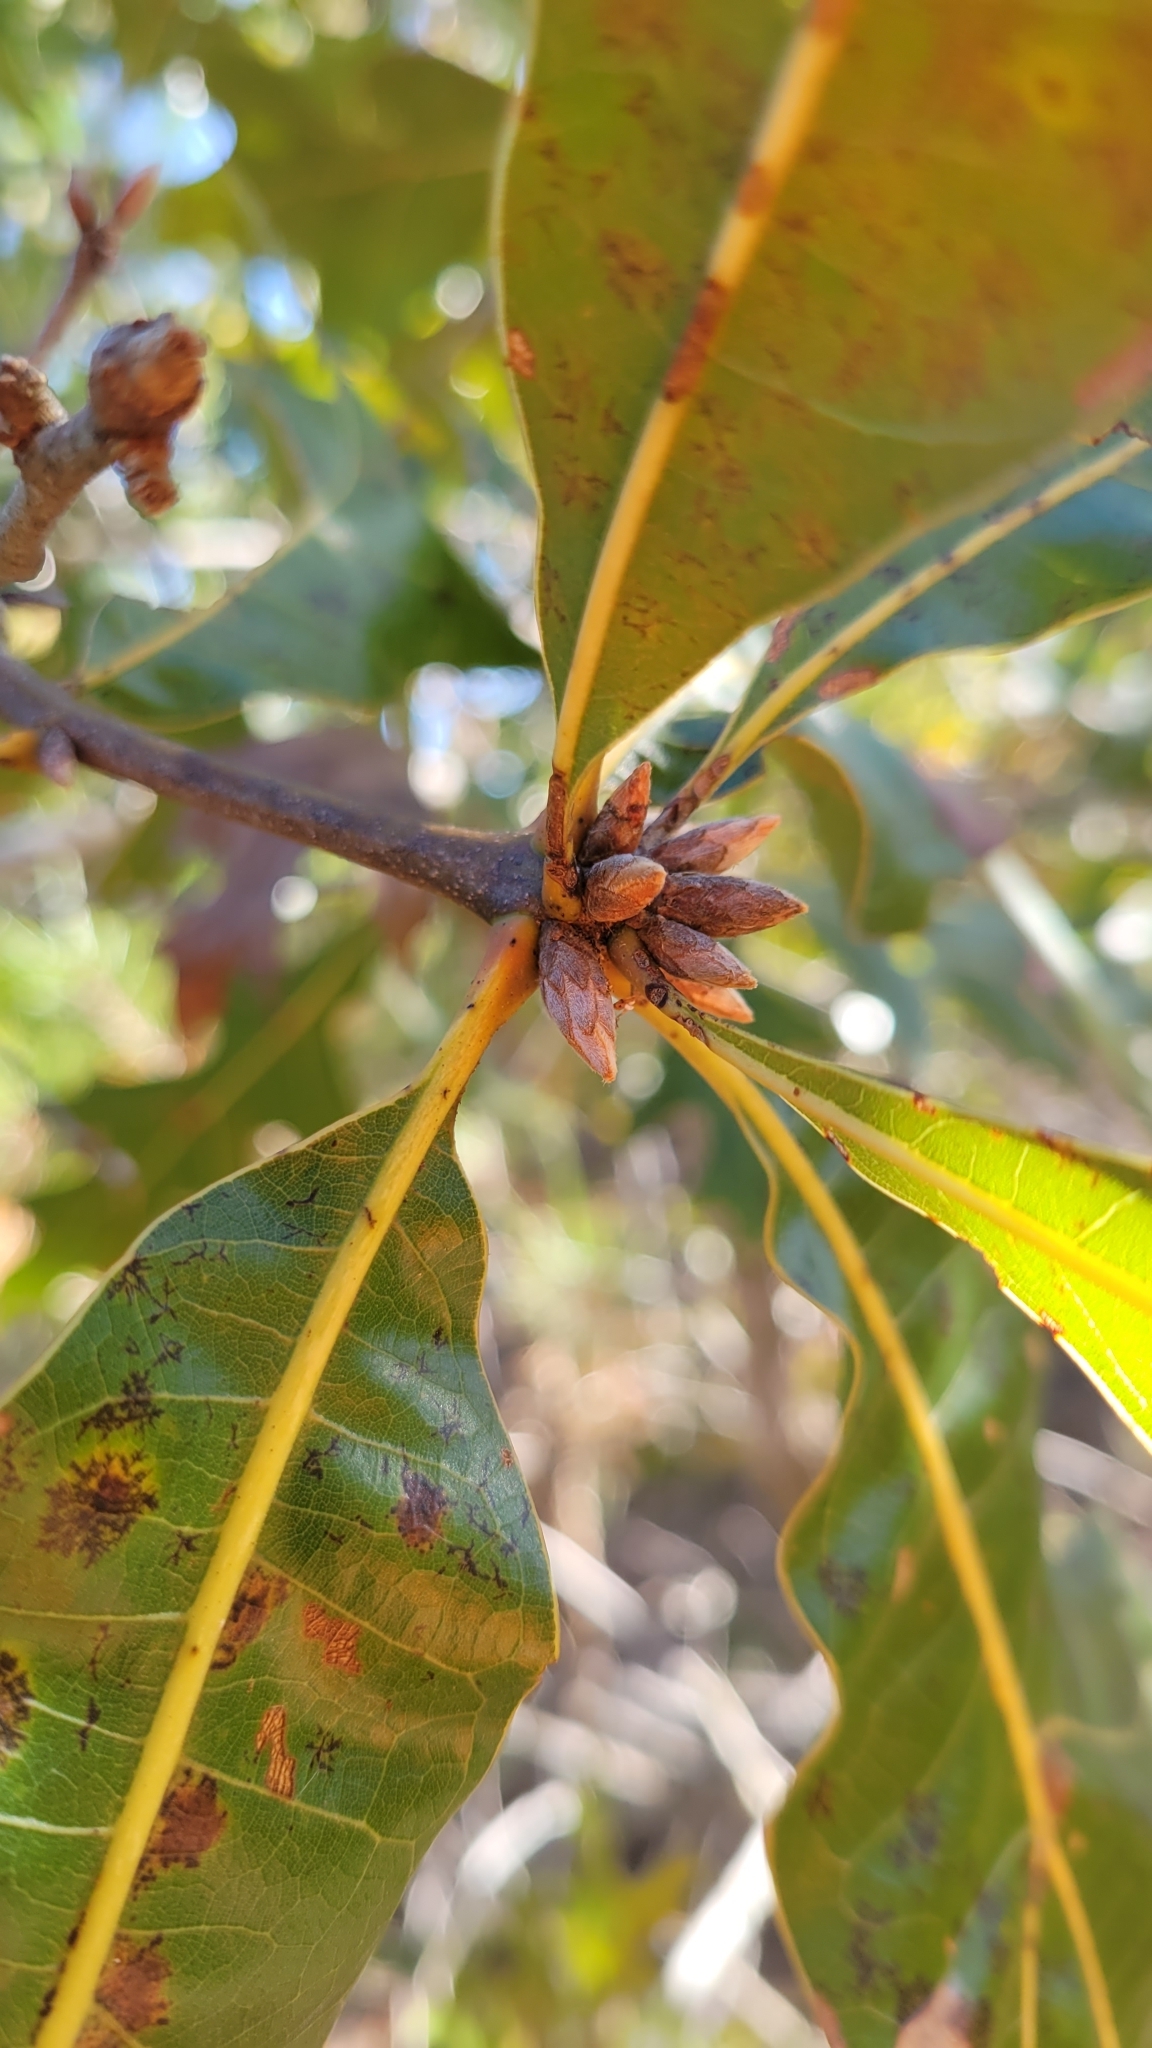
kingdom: Plantae
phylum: Tracheophyta
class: Magnoliopsida
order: Fagales
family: Fagaceae
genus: Quercus
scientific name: Quercus laevis
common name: Turkey oak
